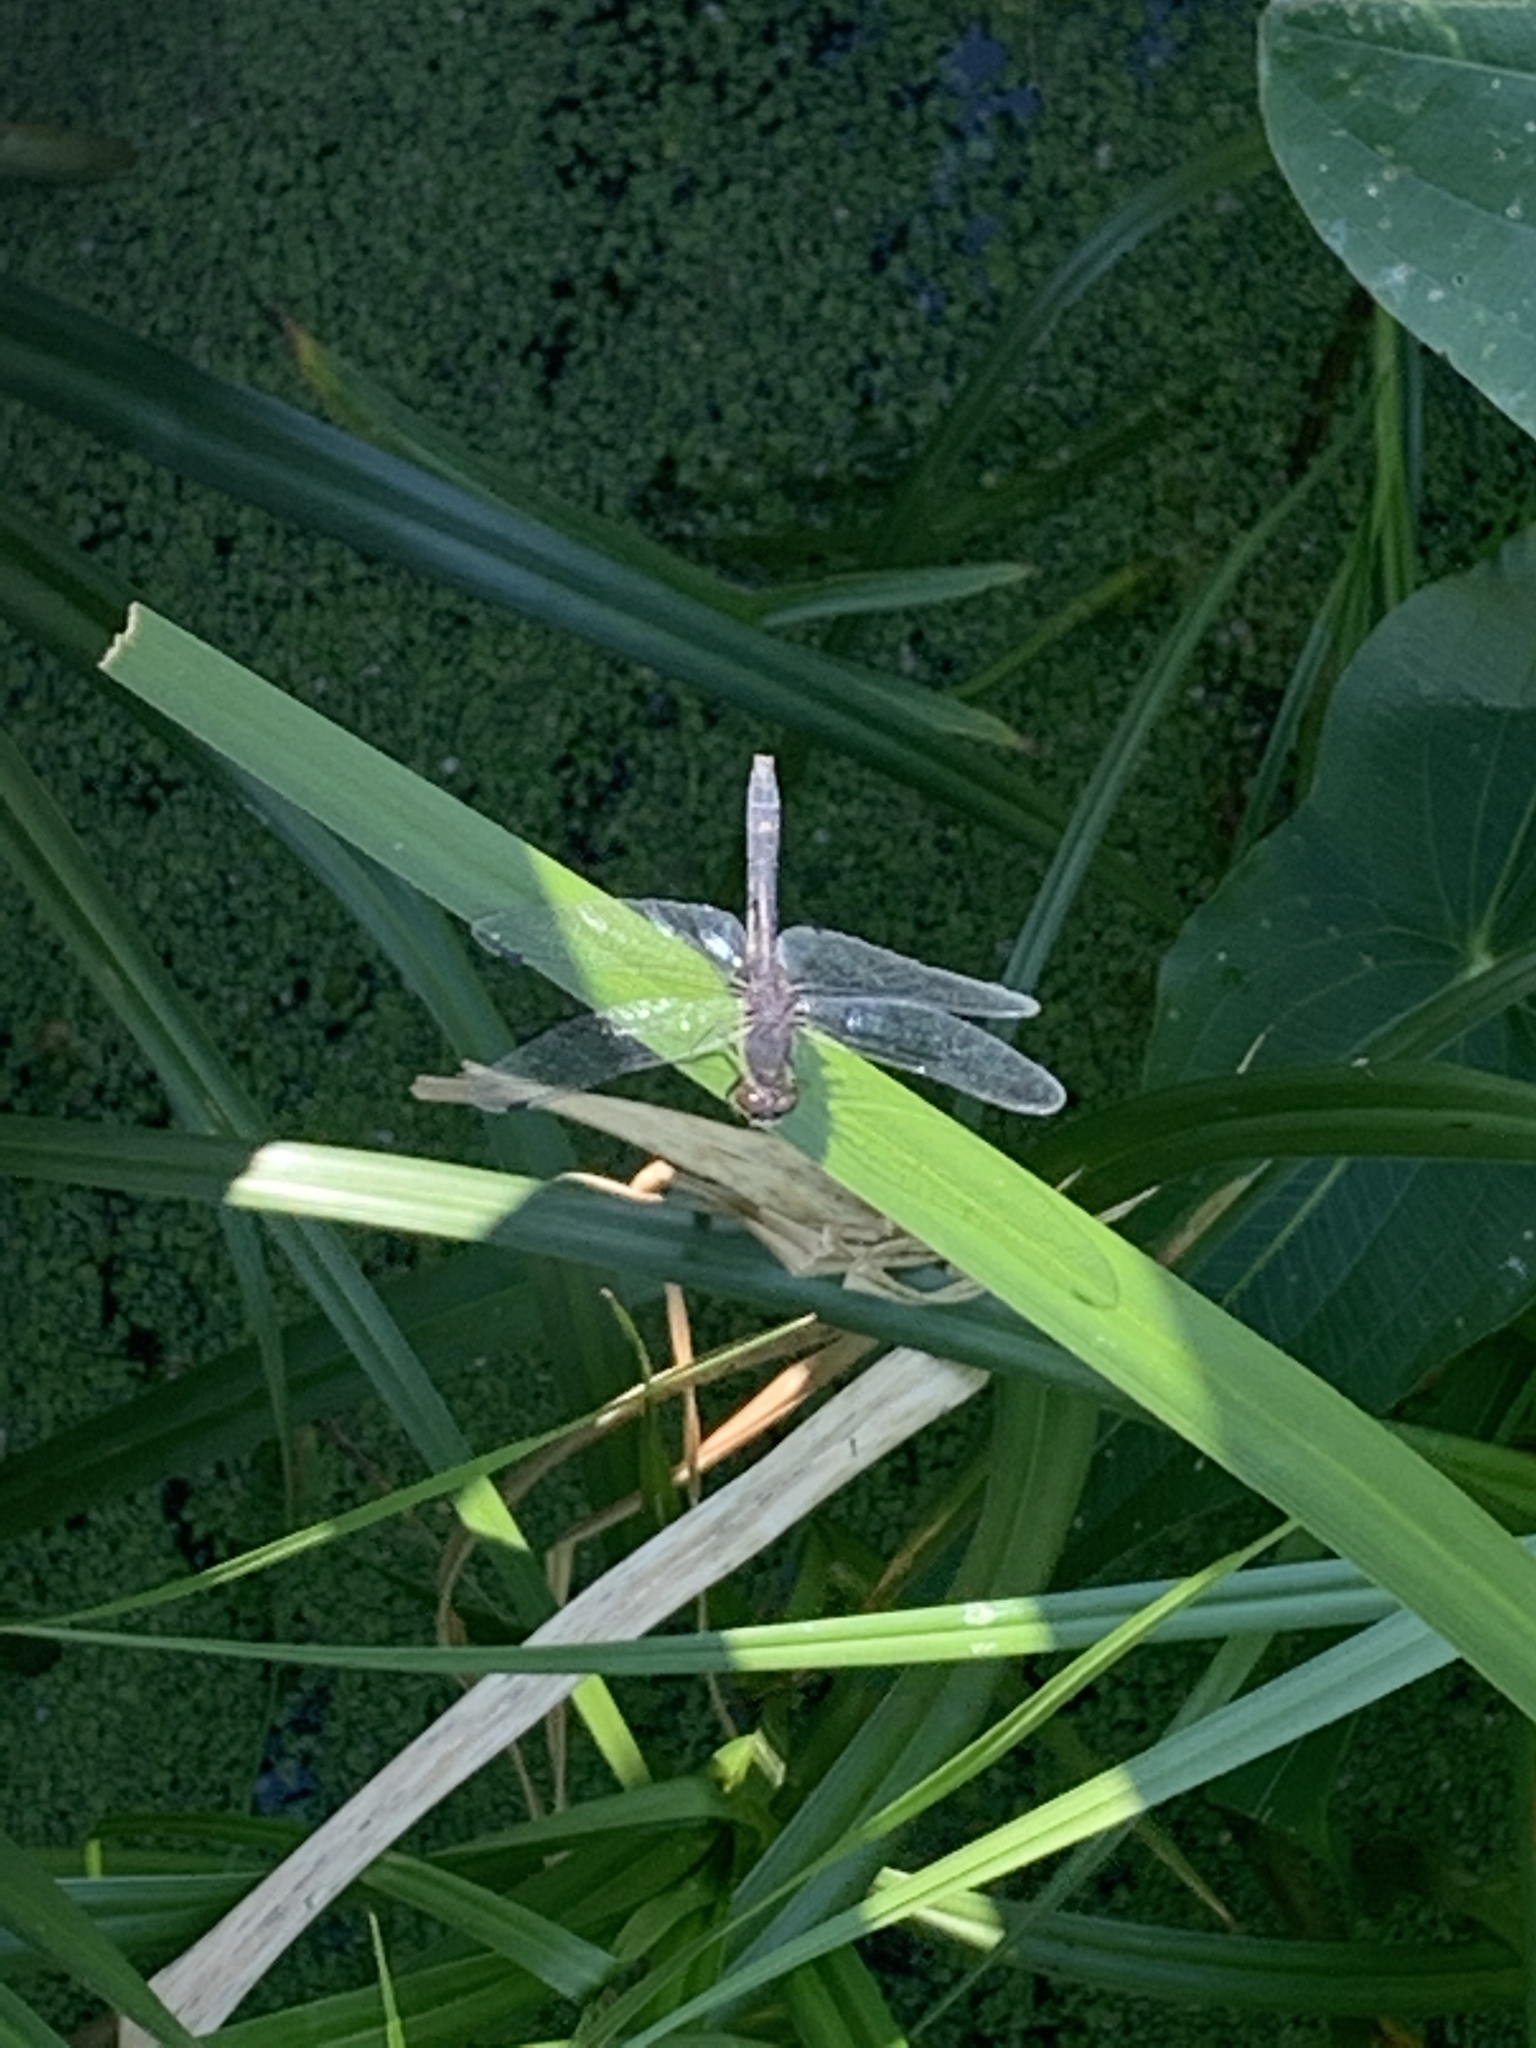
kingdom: Animalia
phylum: Arthropoda
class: Insecta
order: Odonata
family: Libellulidae
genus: Leucorrhinia
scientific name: Leucorrhinia intacta
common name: Dot-tailed whiteface
